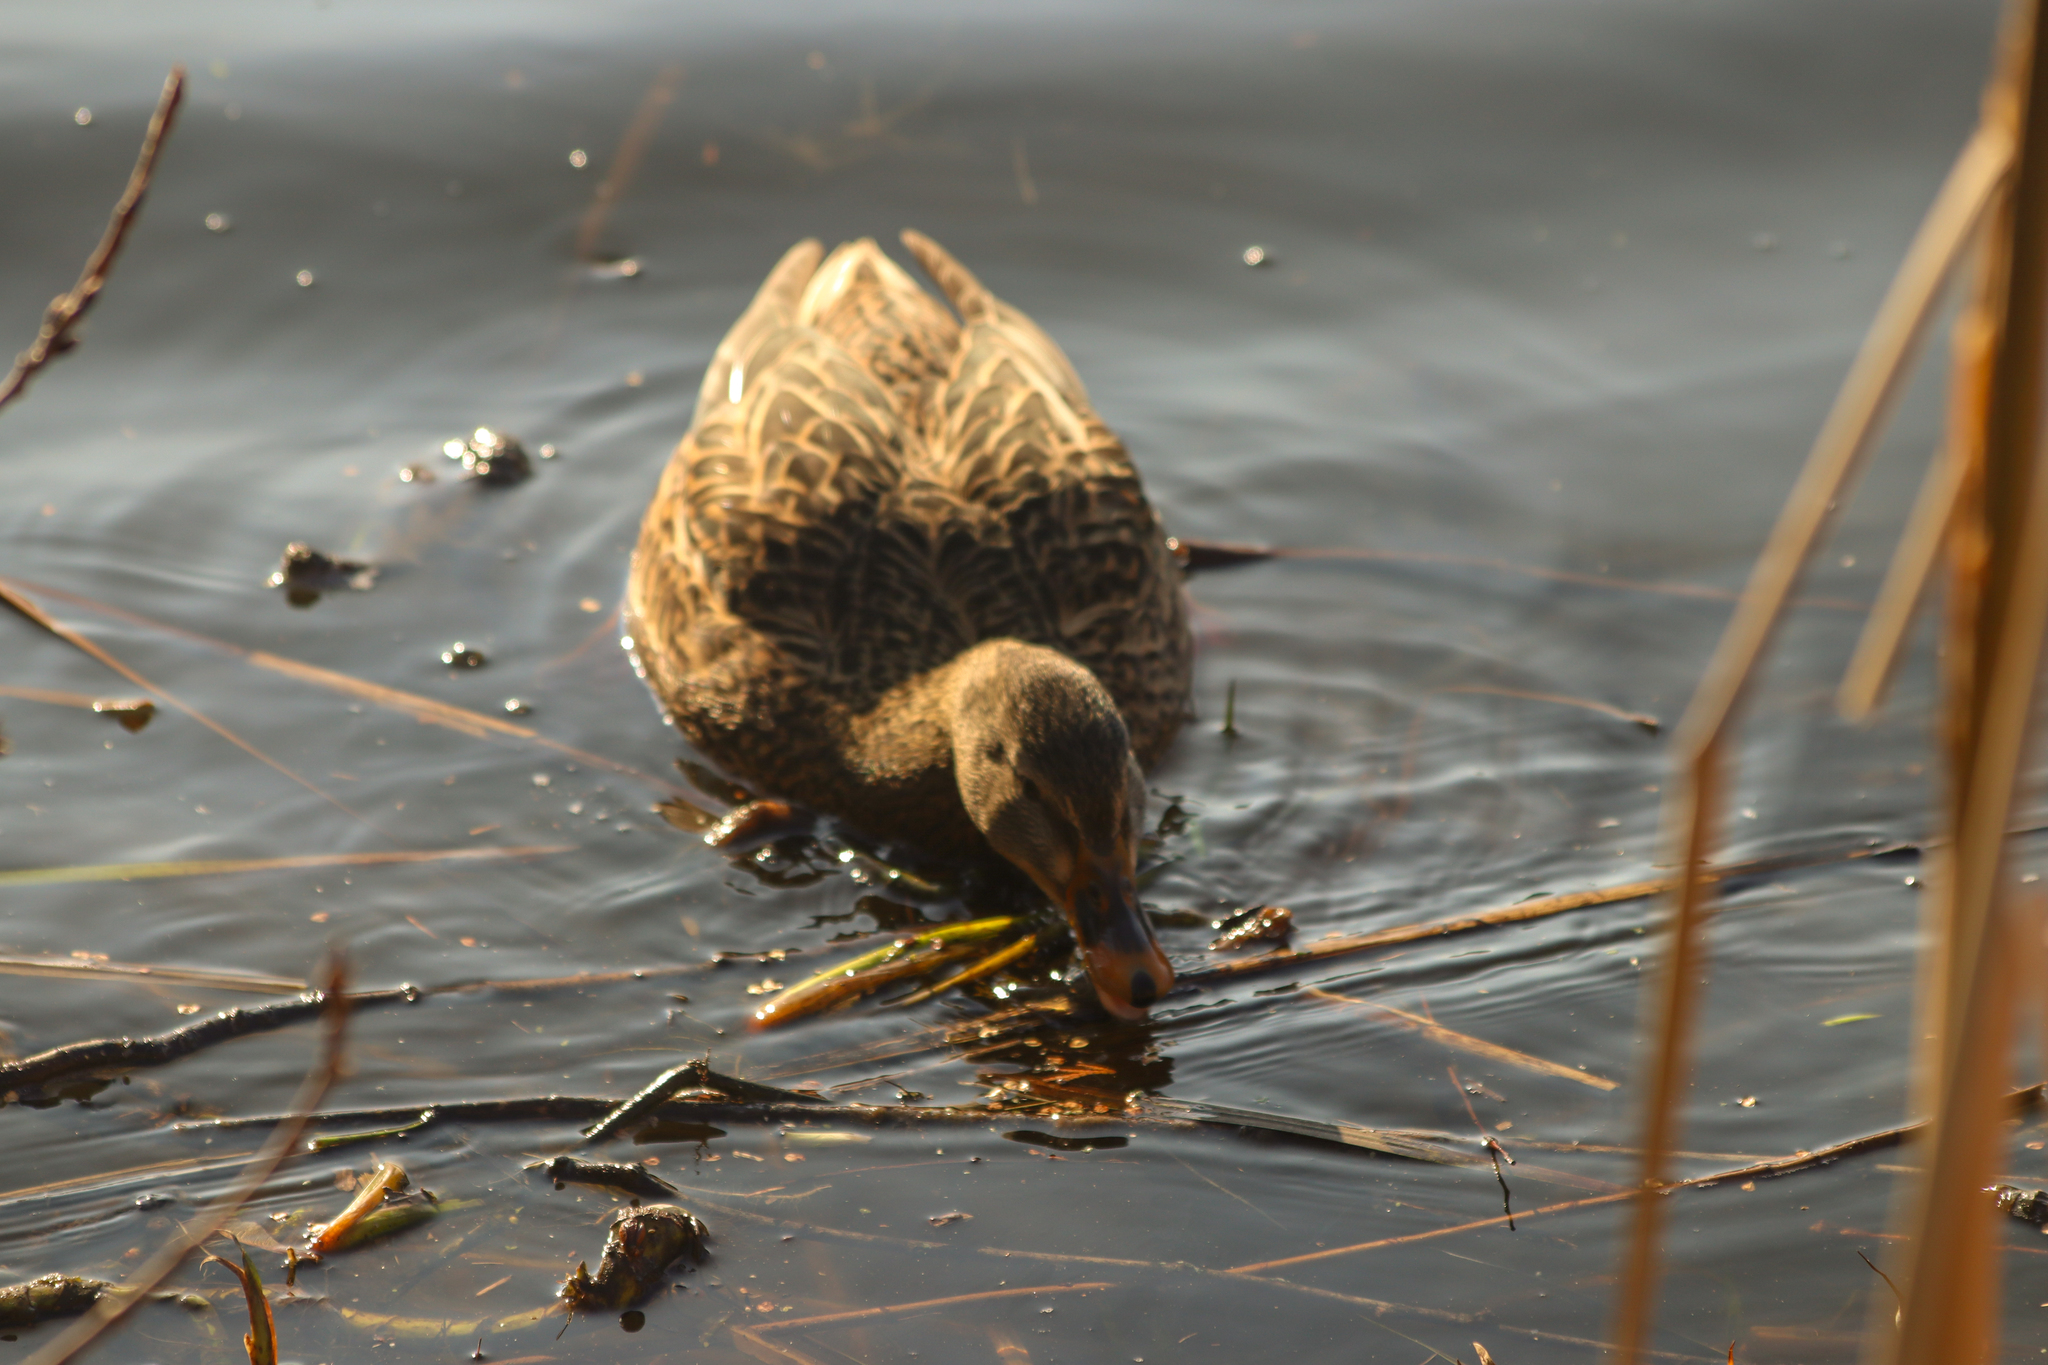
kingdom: Animalia
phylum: Chordata
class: Aves
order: Anseriformes
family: Anatidae
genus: Anas
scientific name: Anas platyrhynchos
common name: Mallard
